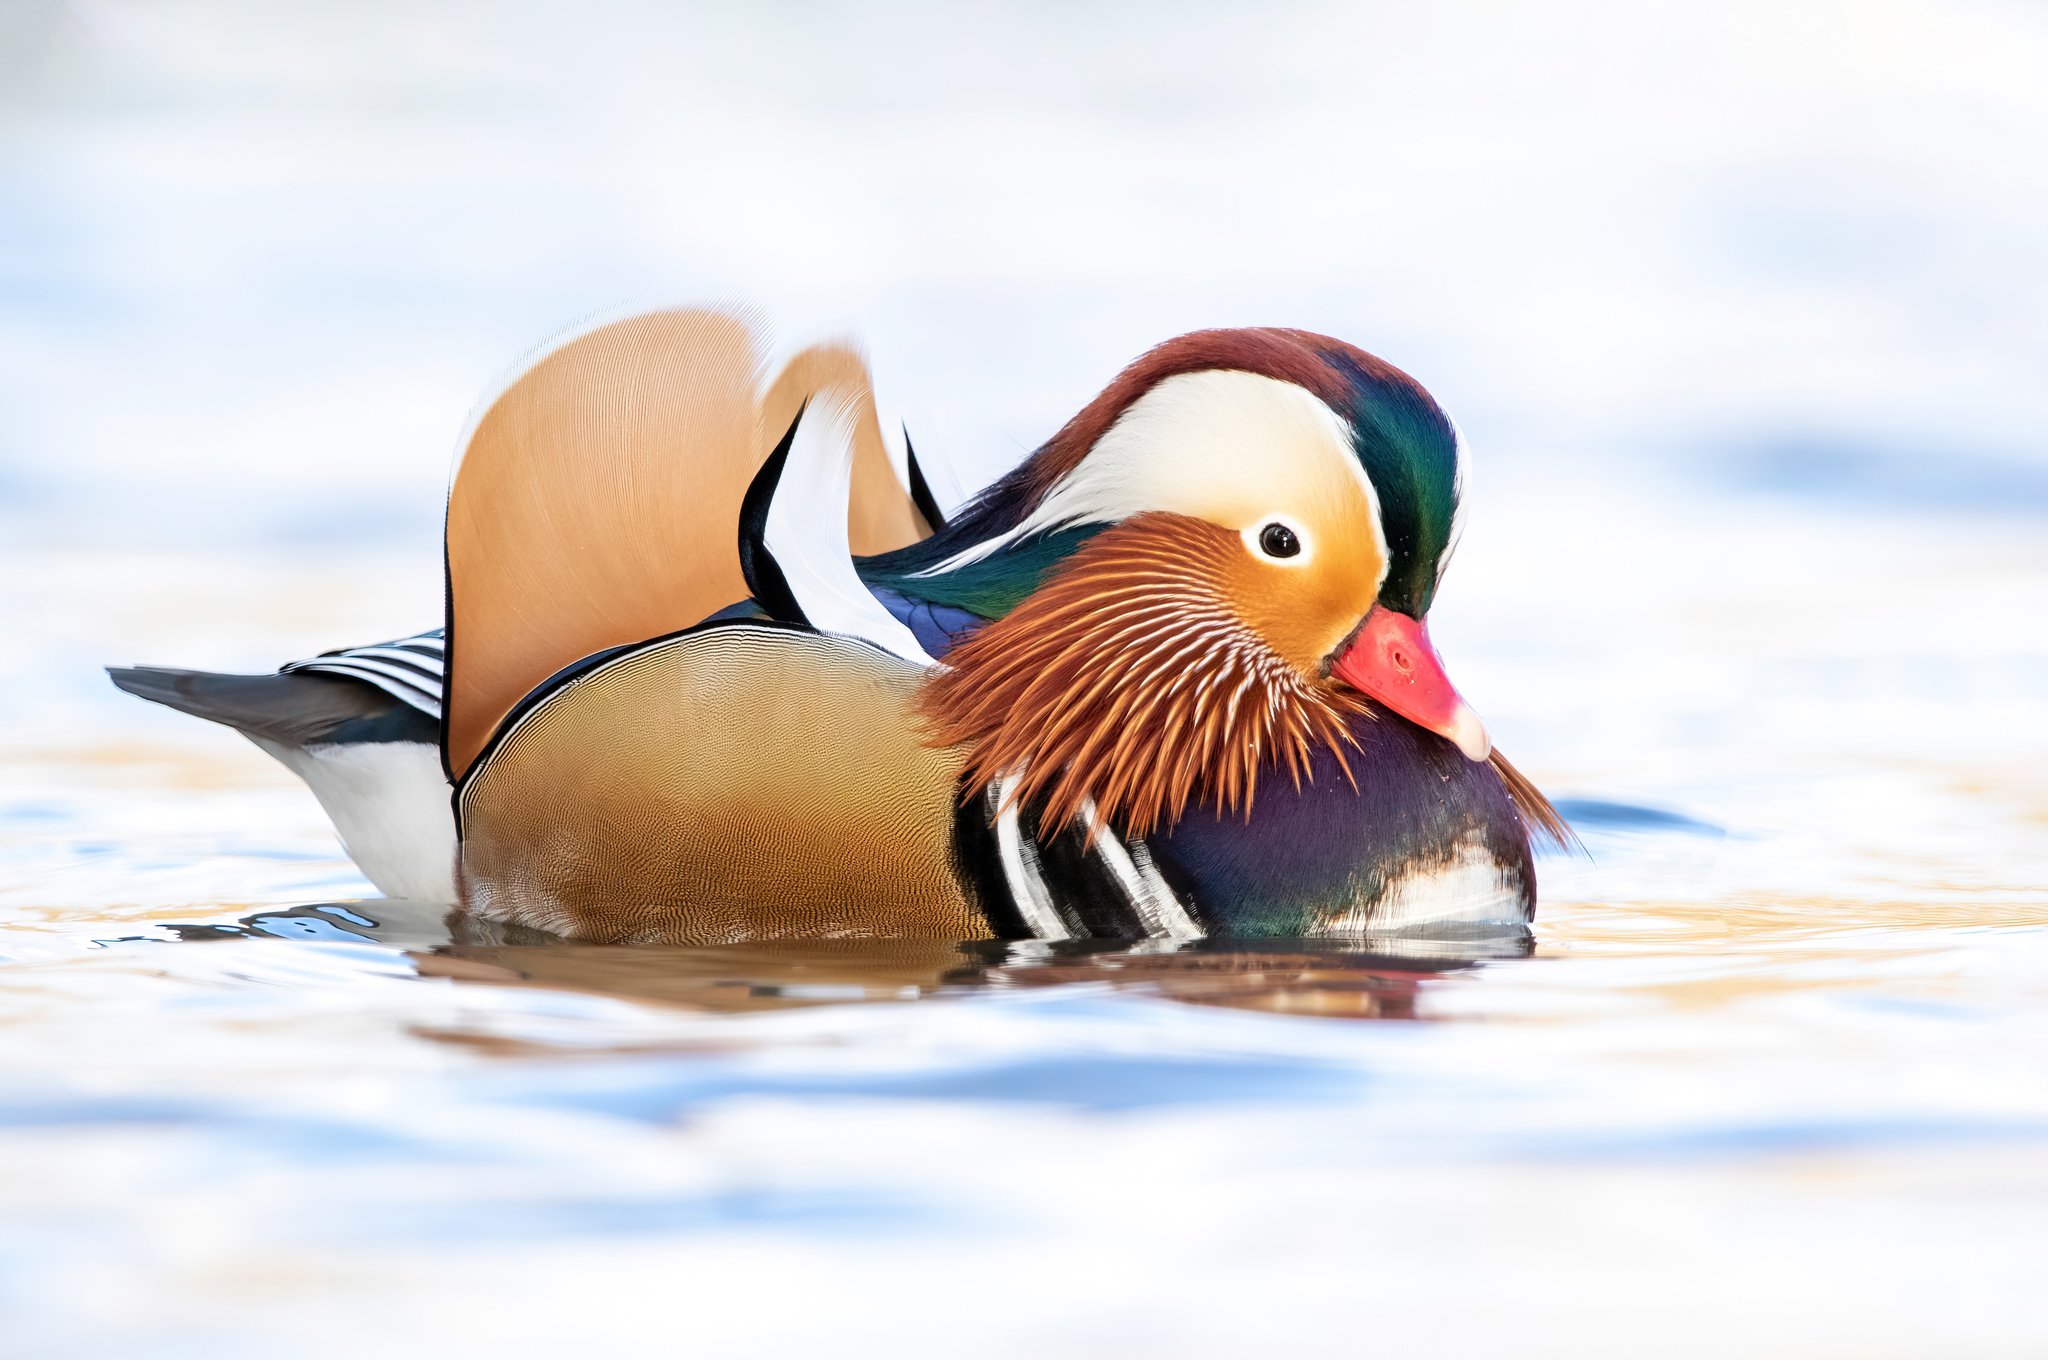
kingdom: Animalia
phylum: Chordata
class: Aves
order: Anseriformes
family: Anatidae
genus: Aix
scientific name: Aix galericulata
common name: Mandarin duck
